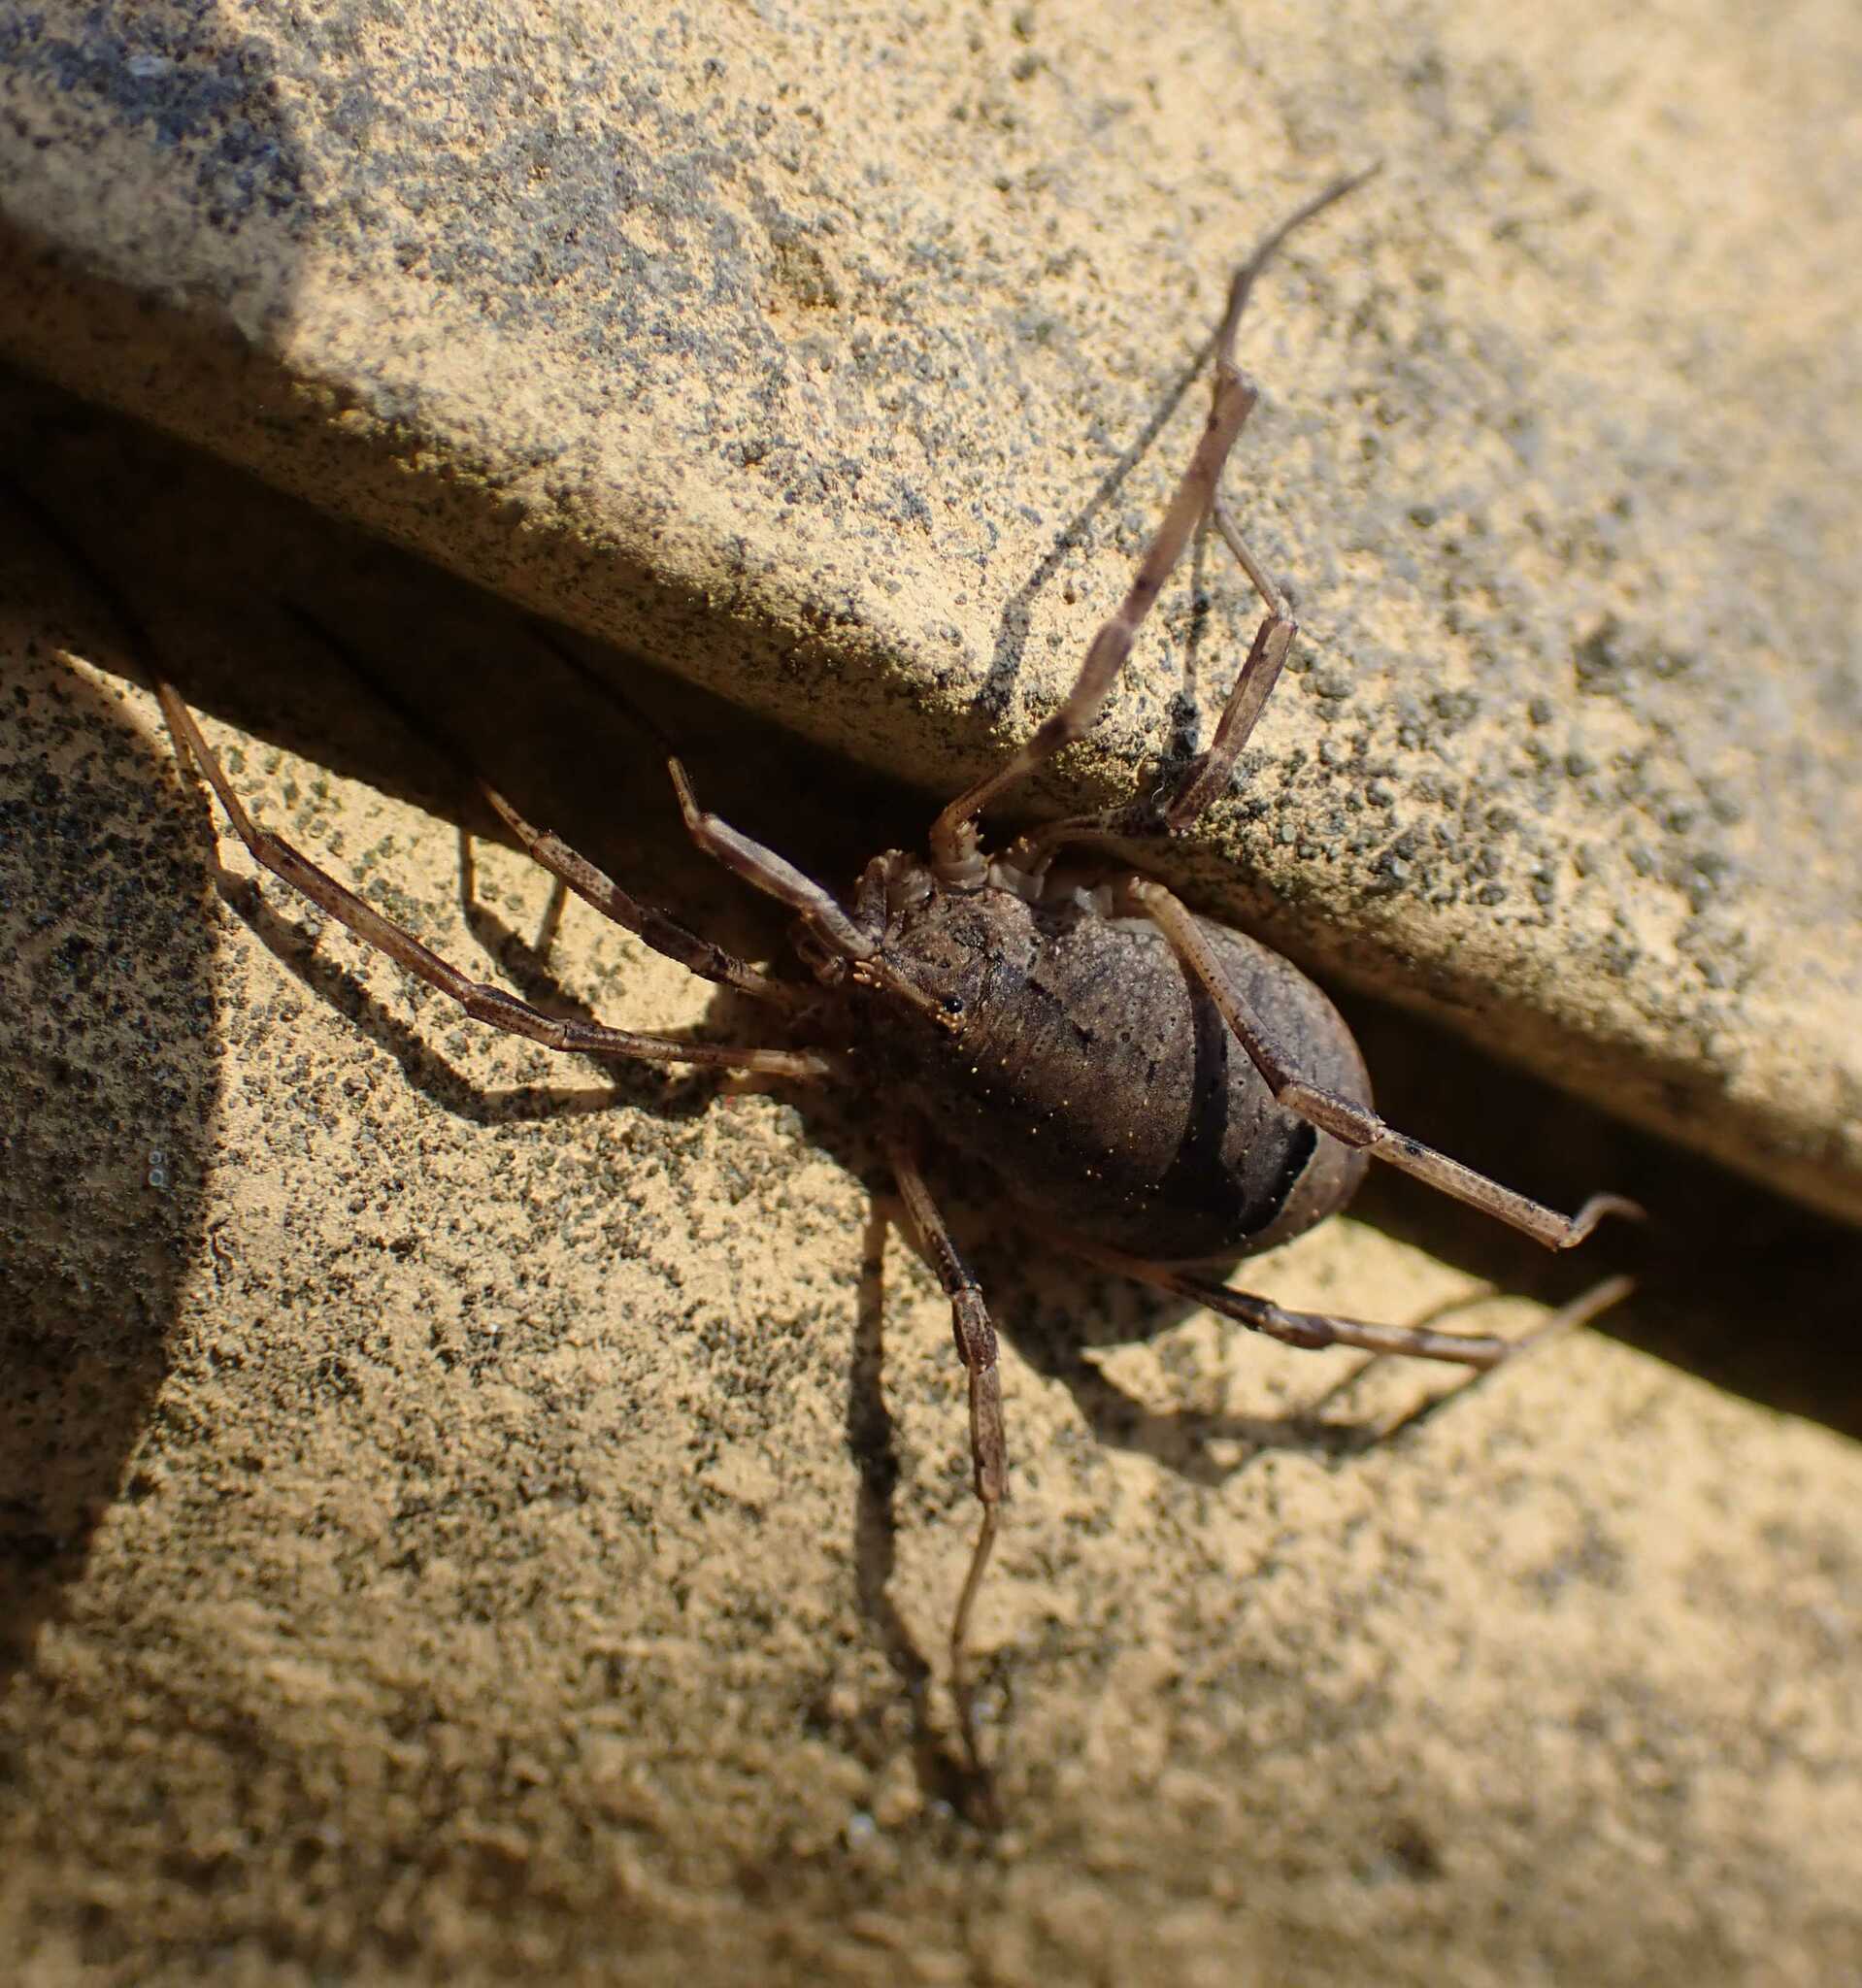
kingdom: Animalia
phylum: Arthropoda
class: Arachnida
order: Opiliones
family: Phalangiidae
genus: Odiellus
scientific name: Odiellus spinosus
